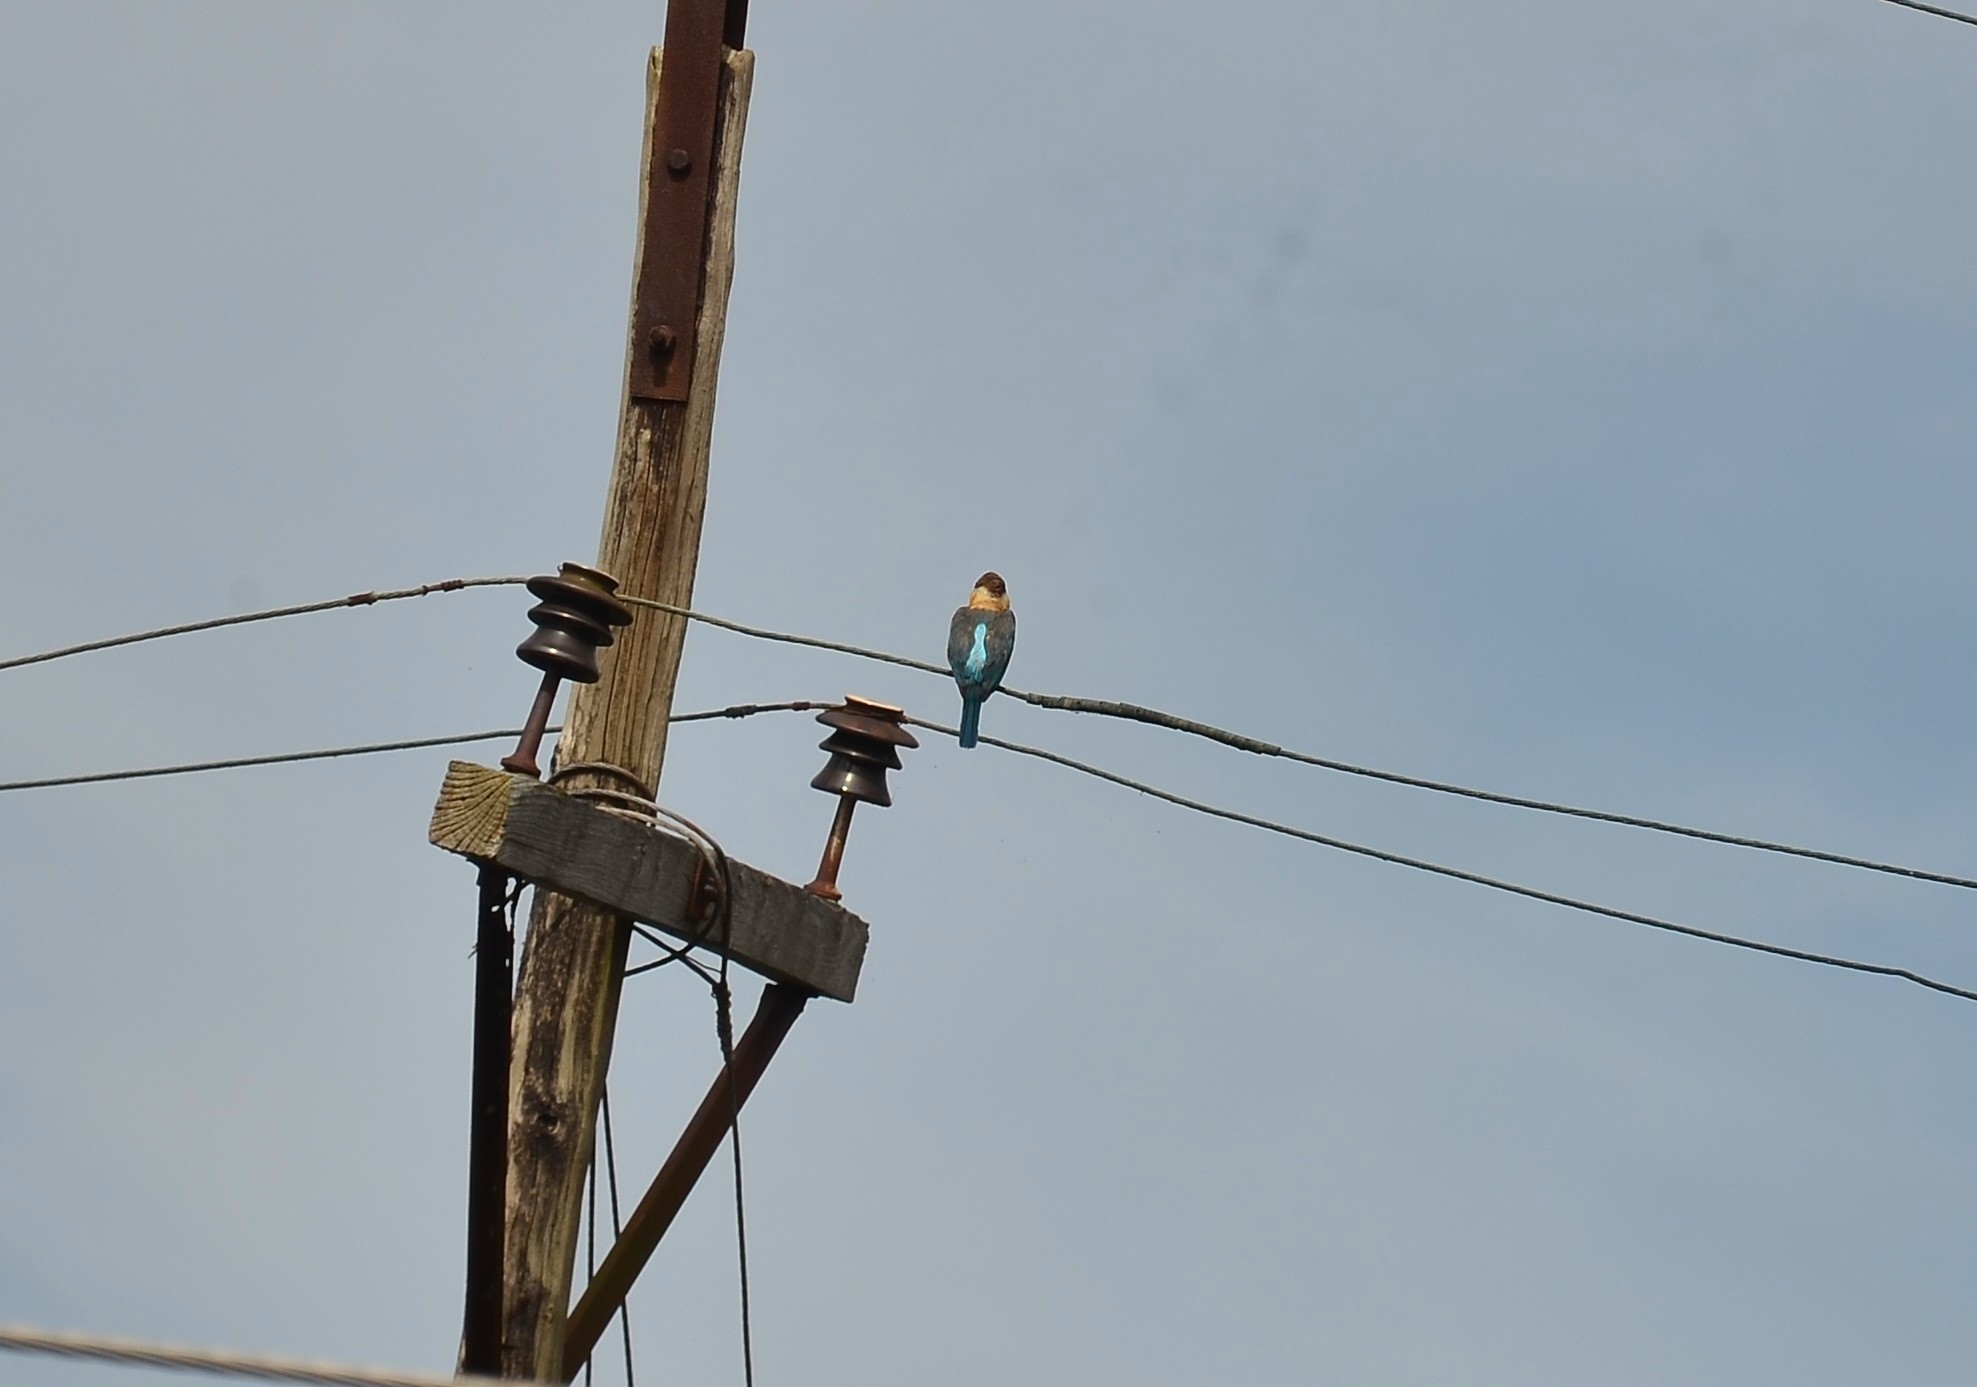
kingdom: Animalia
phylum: Chordata
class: Aves
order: Coraciiformes
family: Alcedinidae
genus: Pelargopsis
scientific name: Pelargopsis capensis
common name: Stork-billed kingfisher
